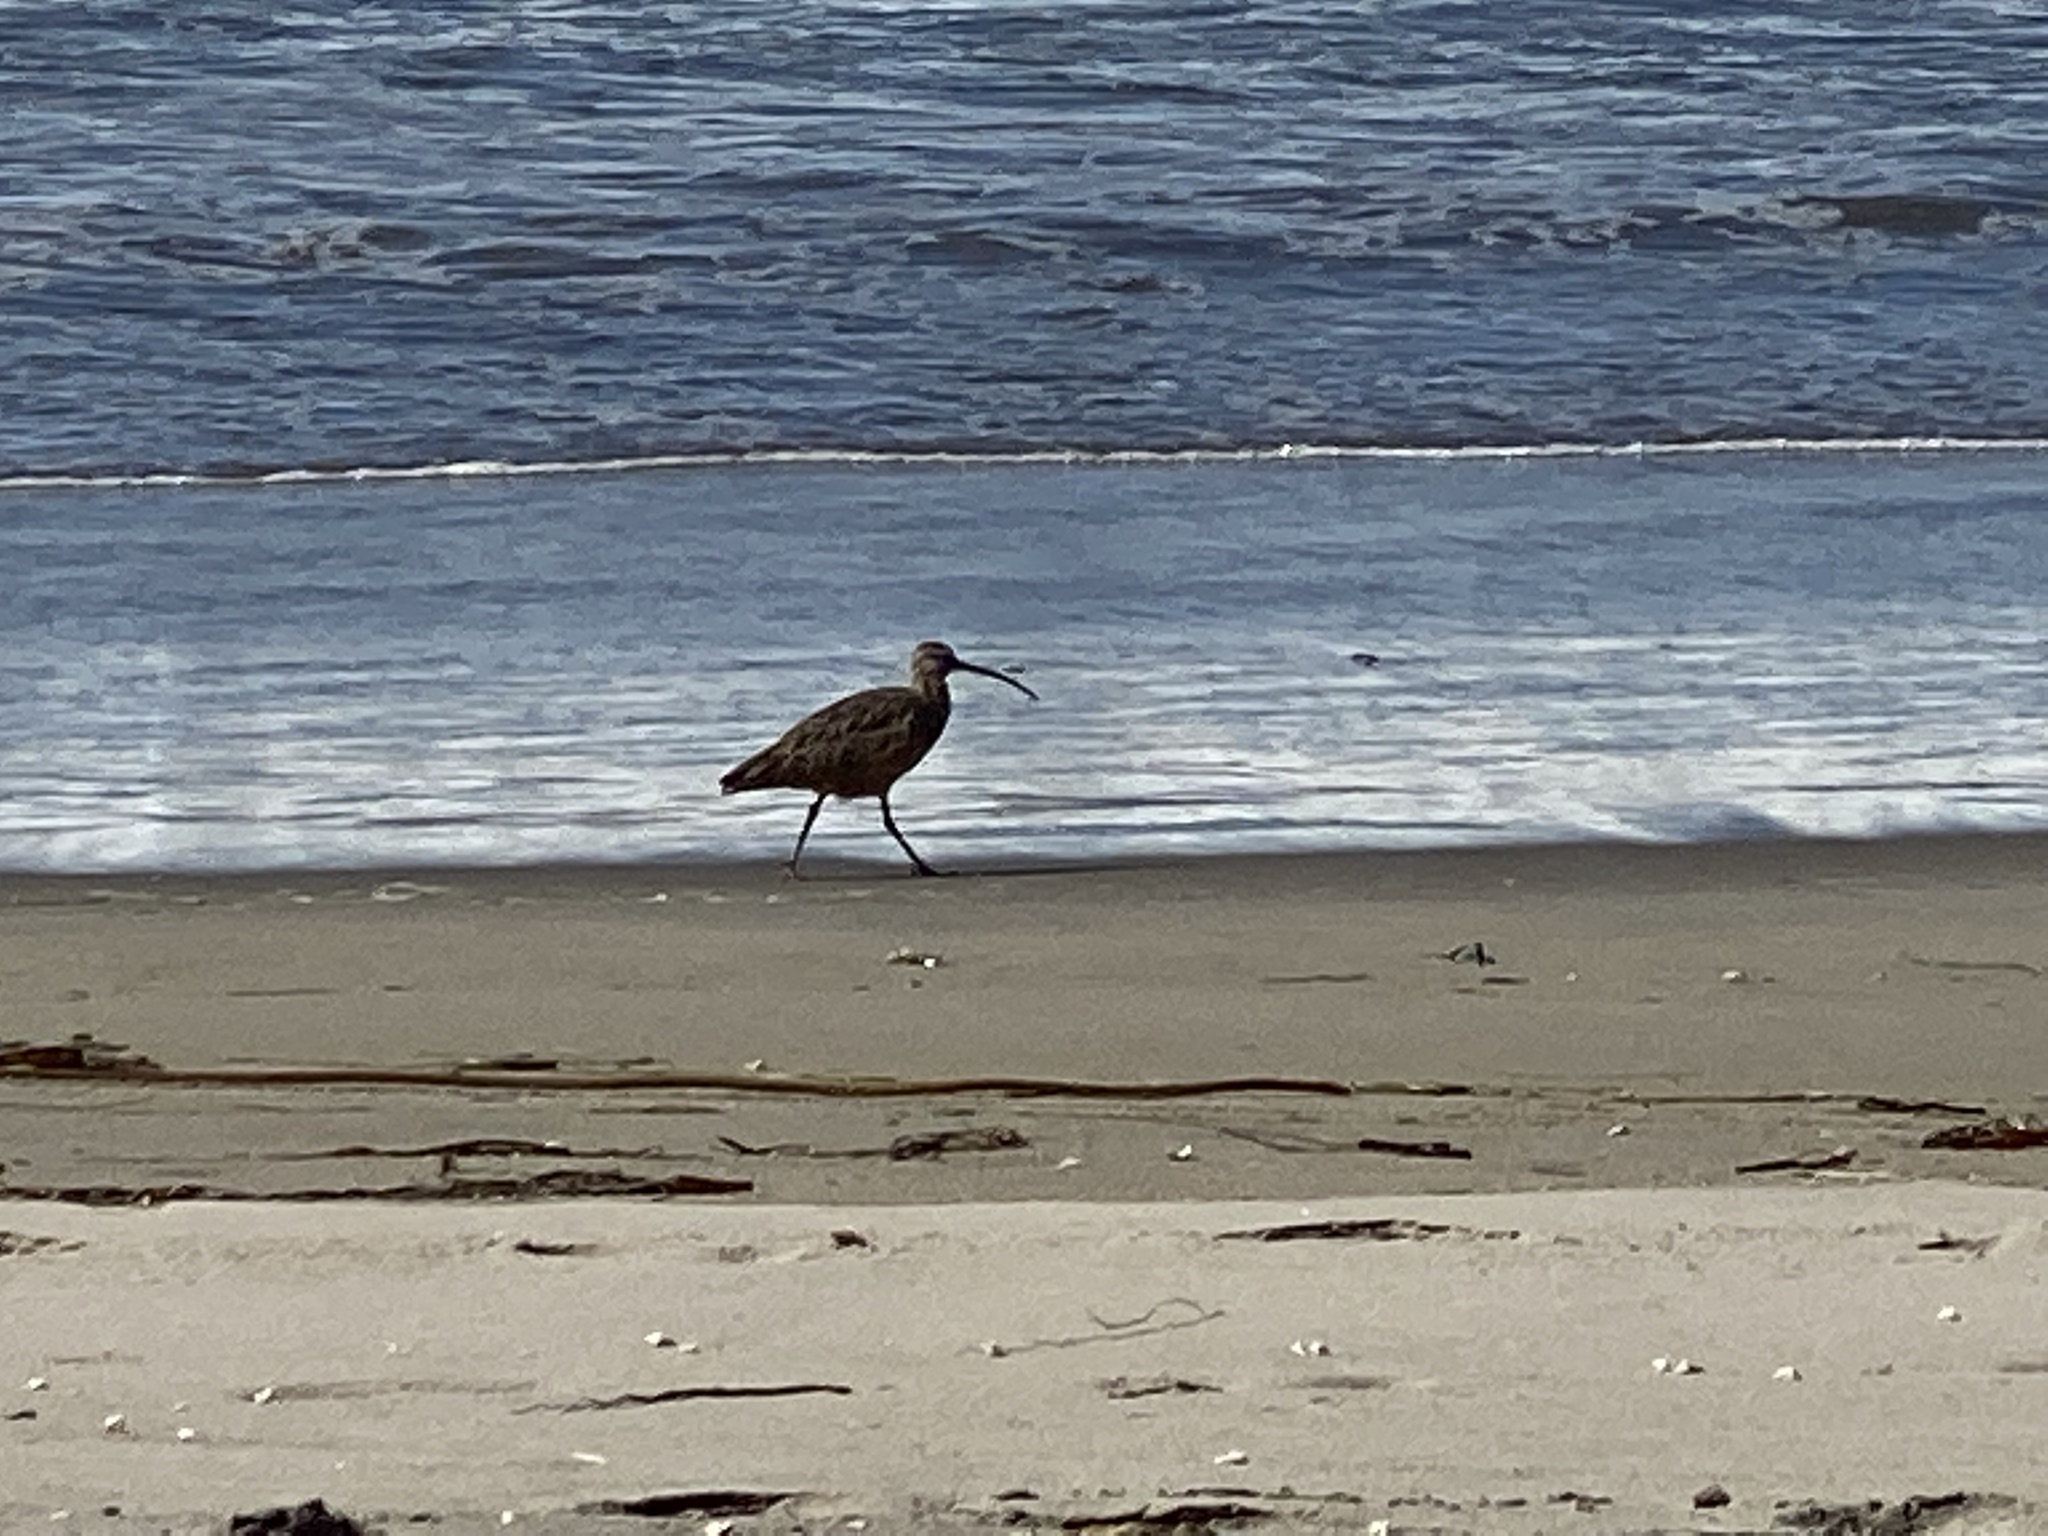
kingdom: Animalia
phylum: Chordata
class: Aves
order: Charadriiformes
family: Scolopacidae
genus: Numenius
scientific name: Numenius phaeopus
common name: Whimbrel
